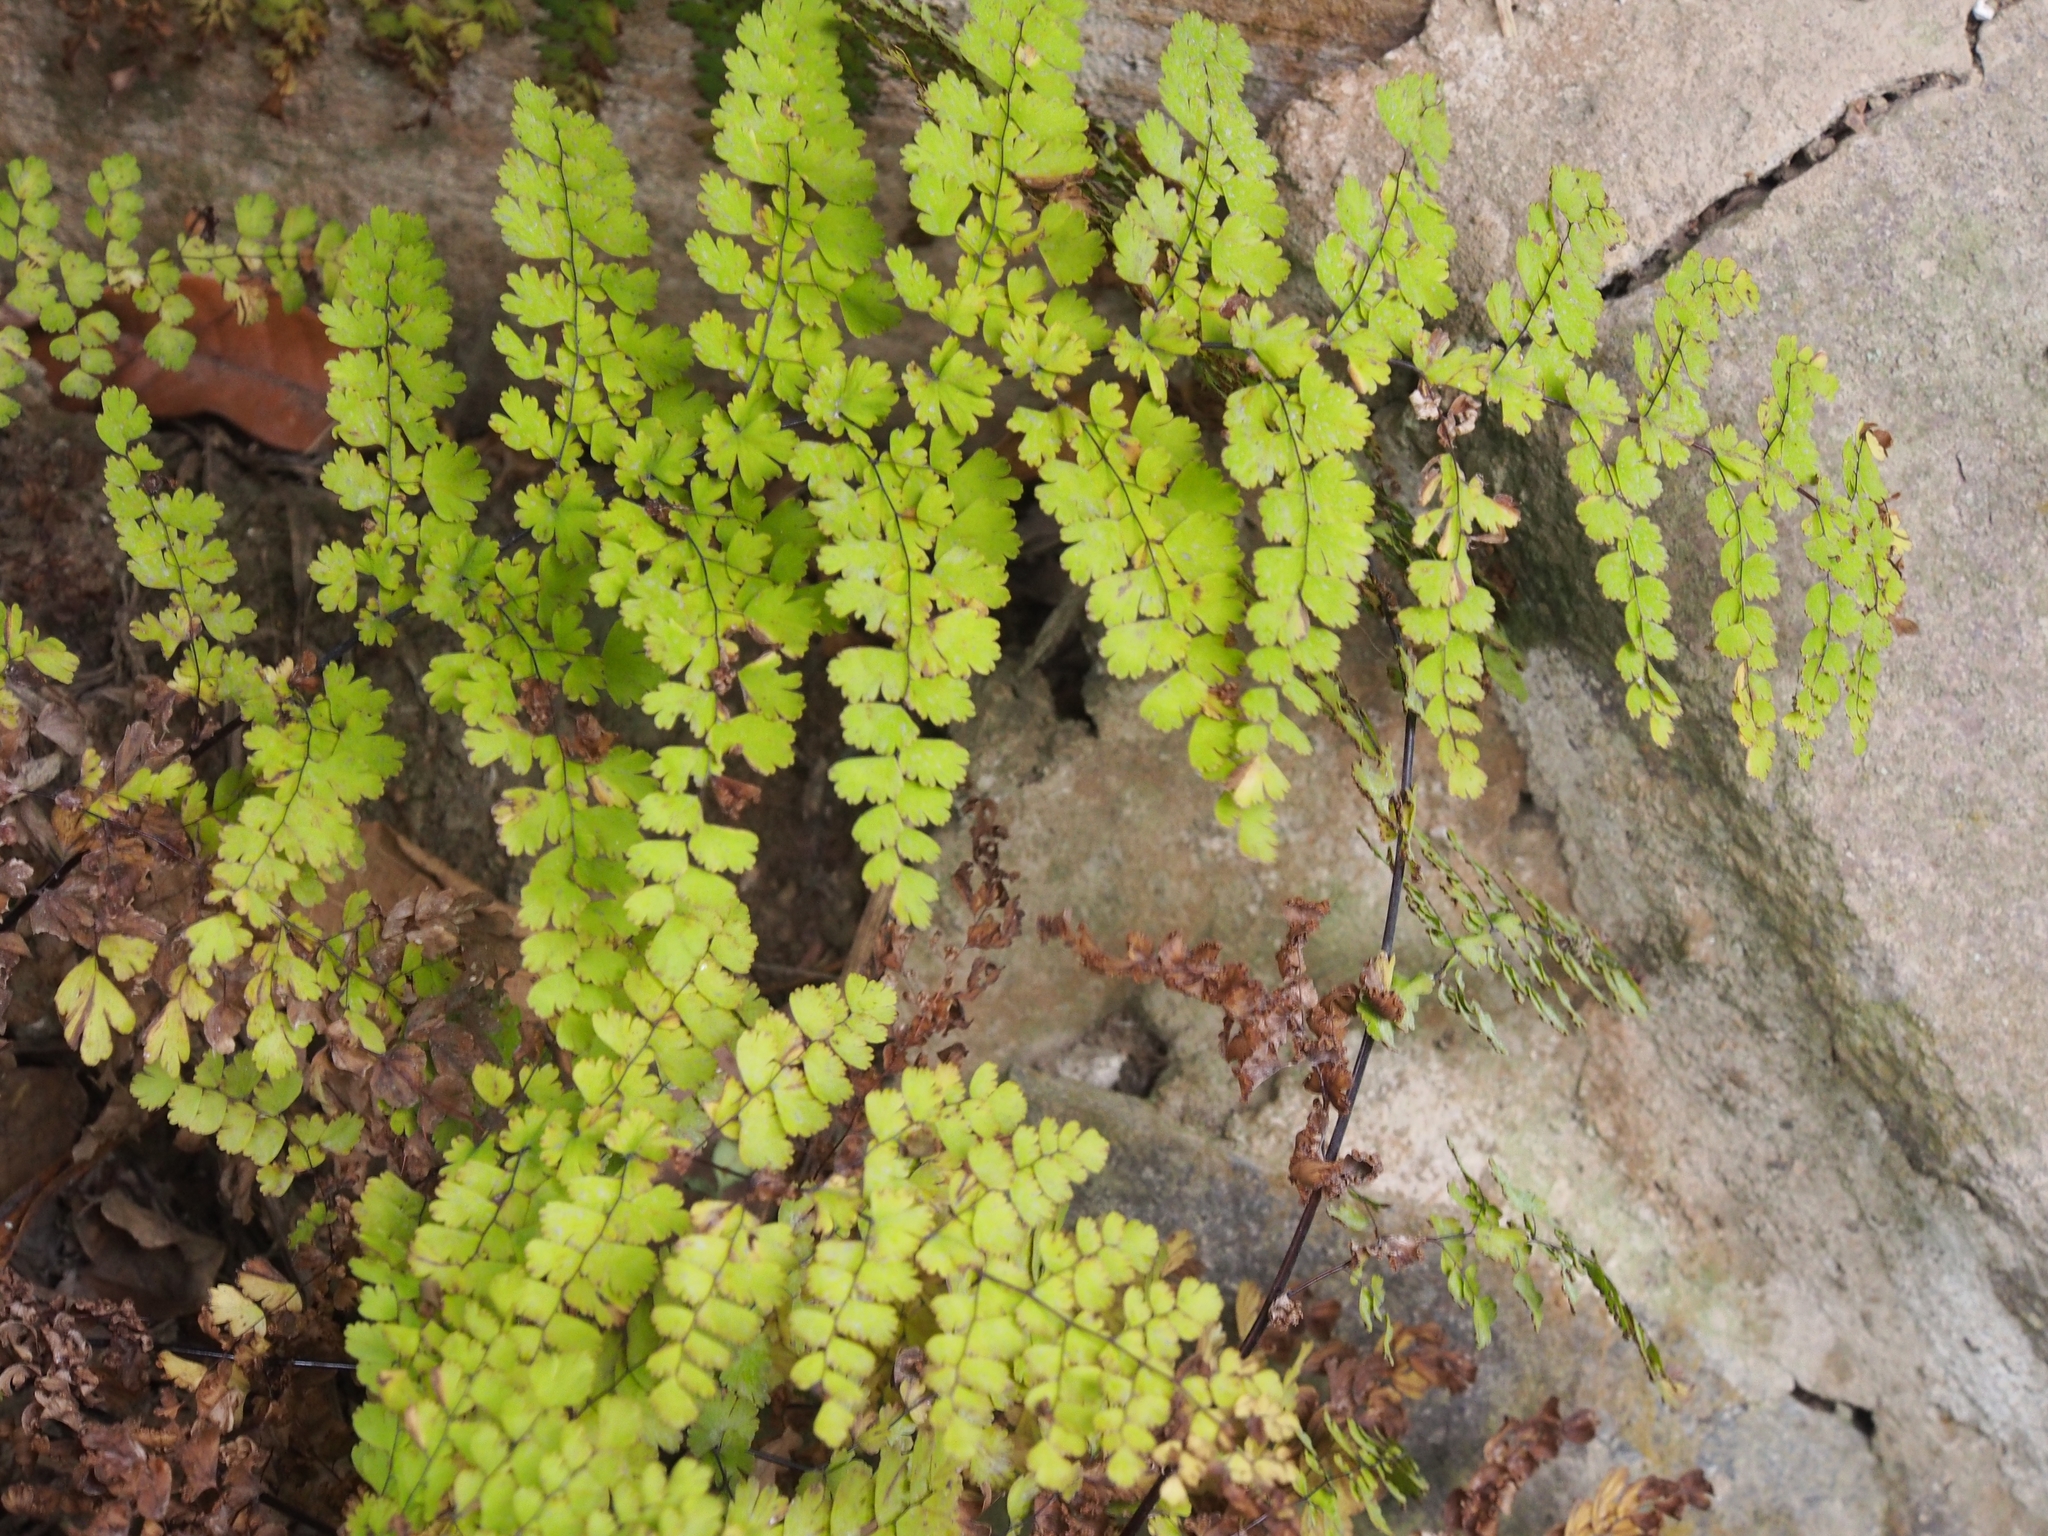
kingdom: Plantae
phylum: Tracheophyta
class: Polypodiopsida
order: Polypodiales
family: Pteridaceae
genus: Adiantum
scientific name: Adiantum concinnum
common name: Brittle maidenhair fern
